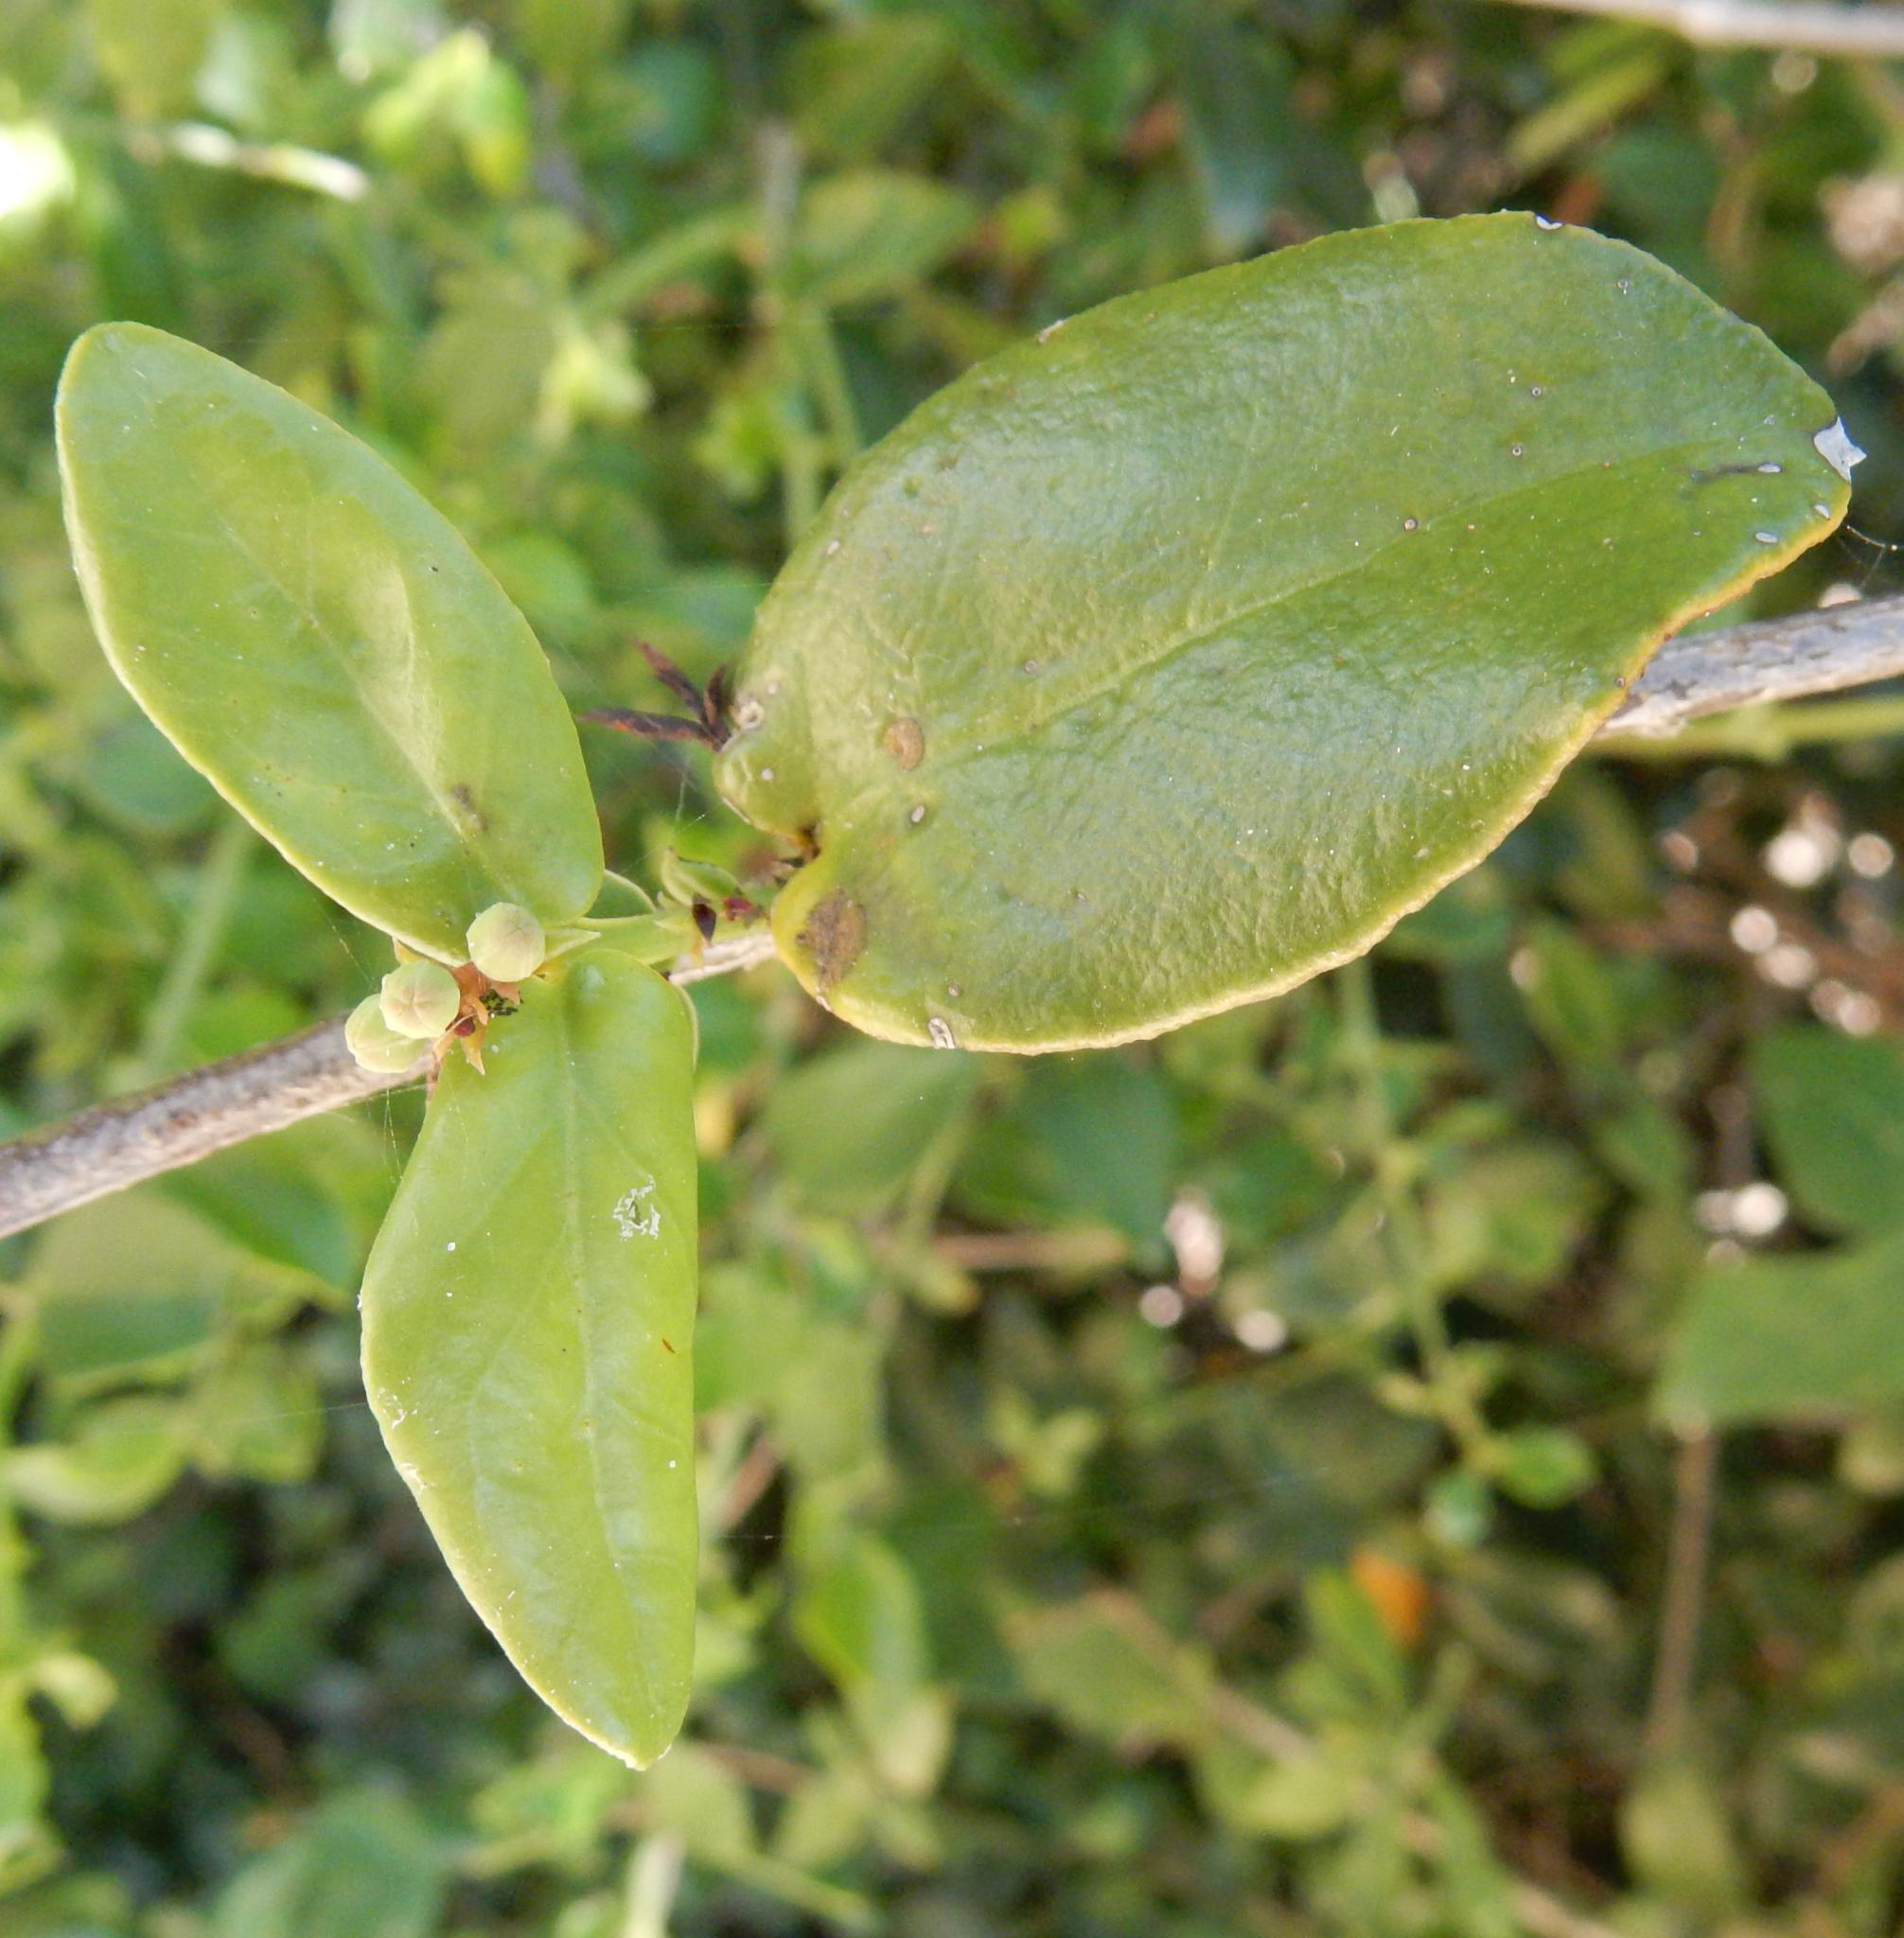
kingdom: Plantae
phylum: Tracheophyta
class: Magnoliopsida
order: Santalales
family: Santalaceae
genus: Rhoiacarpos
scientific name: Rhoiacarpos capensis
